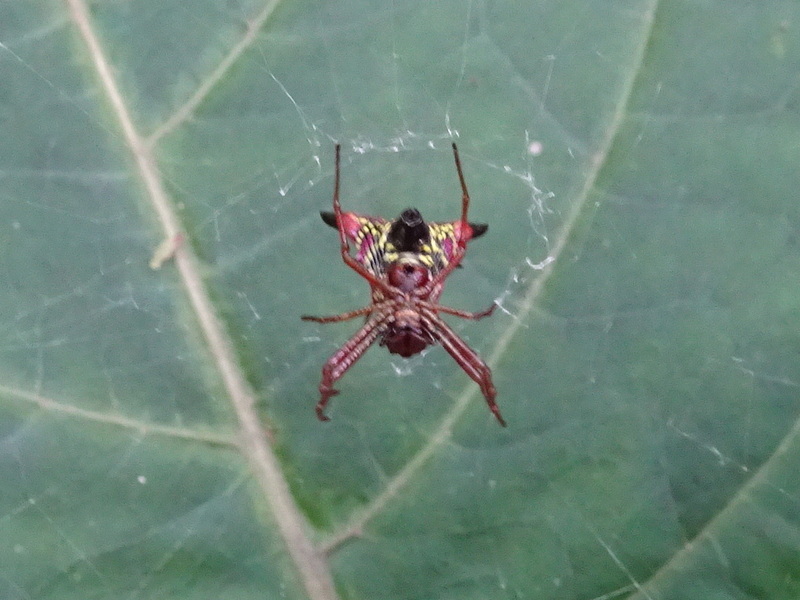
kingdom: Animalia
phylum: Arthropoda
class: Arachnida
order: Araneae
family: Araneidae
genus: Micrathena
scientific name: Micrathena sagittata
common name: Orb weavers
